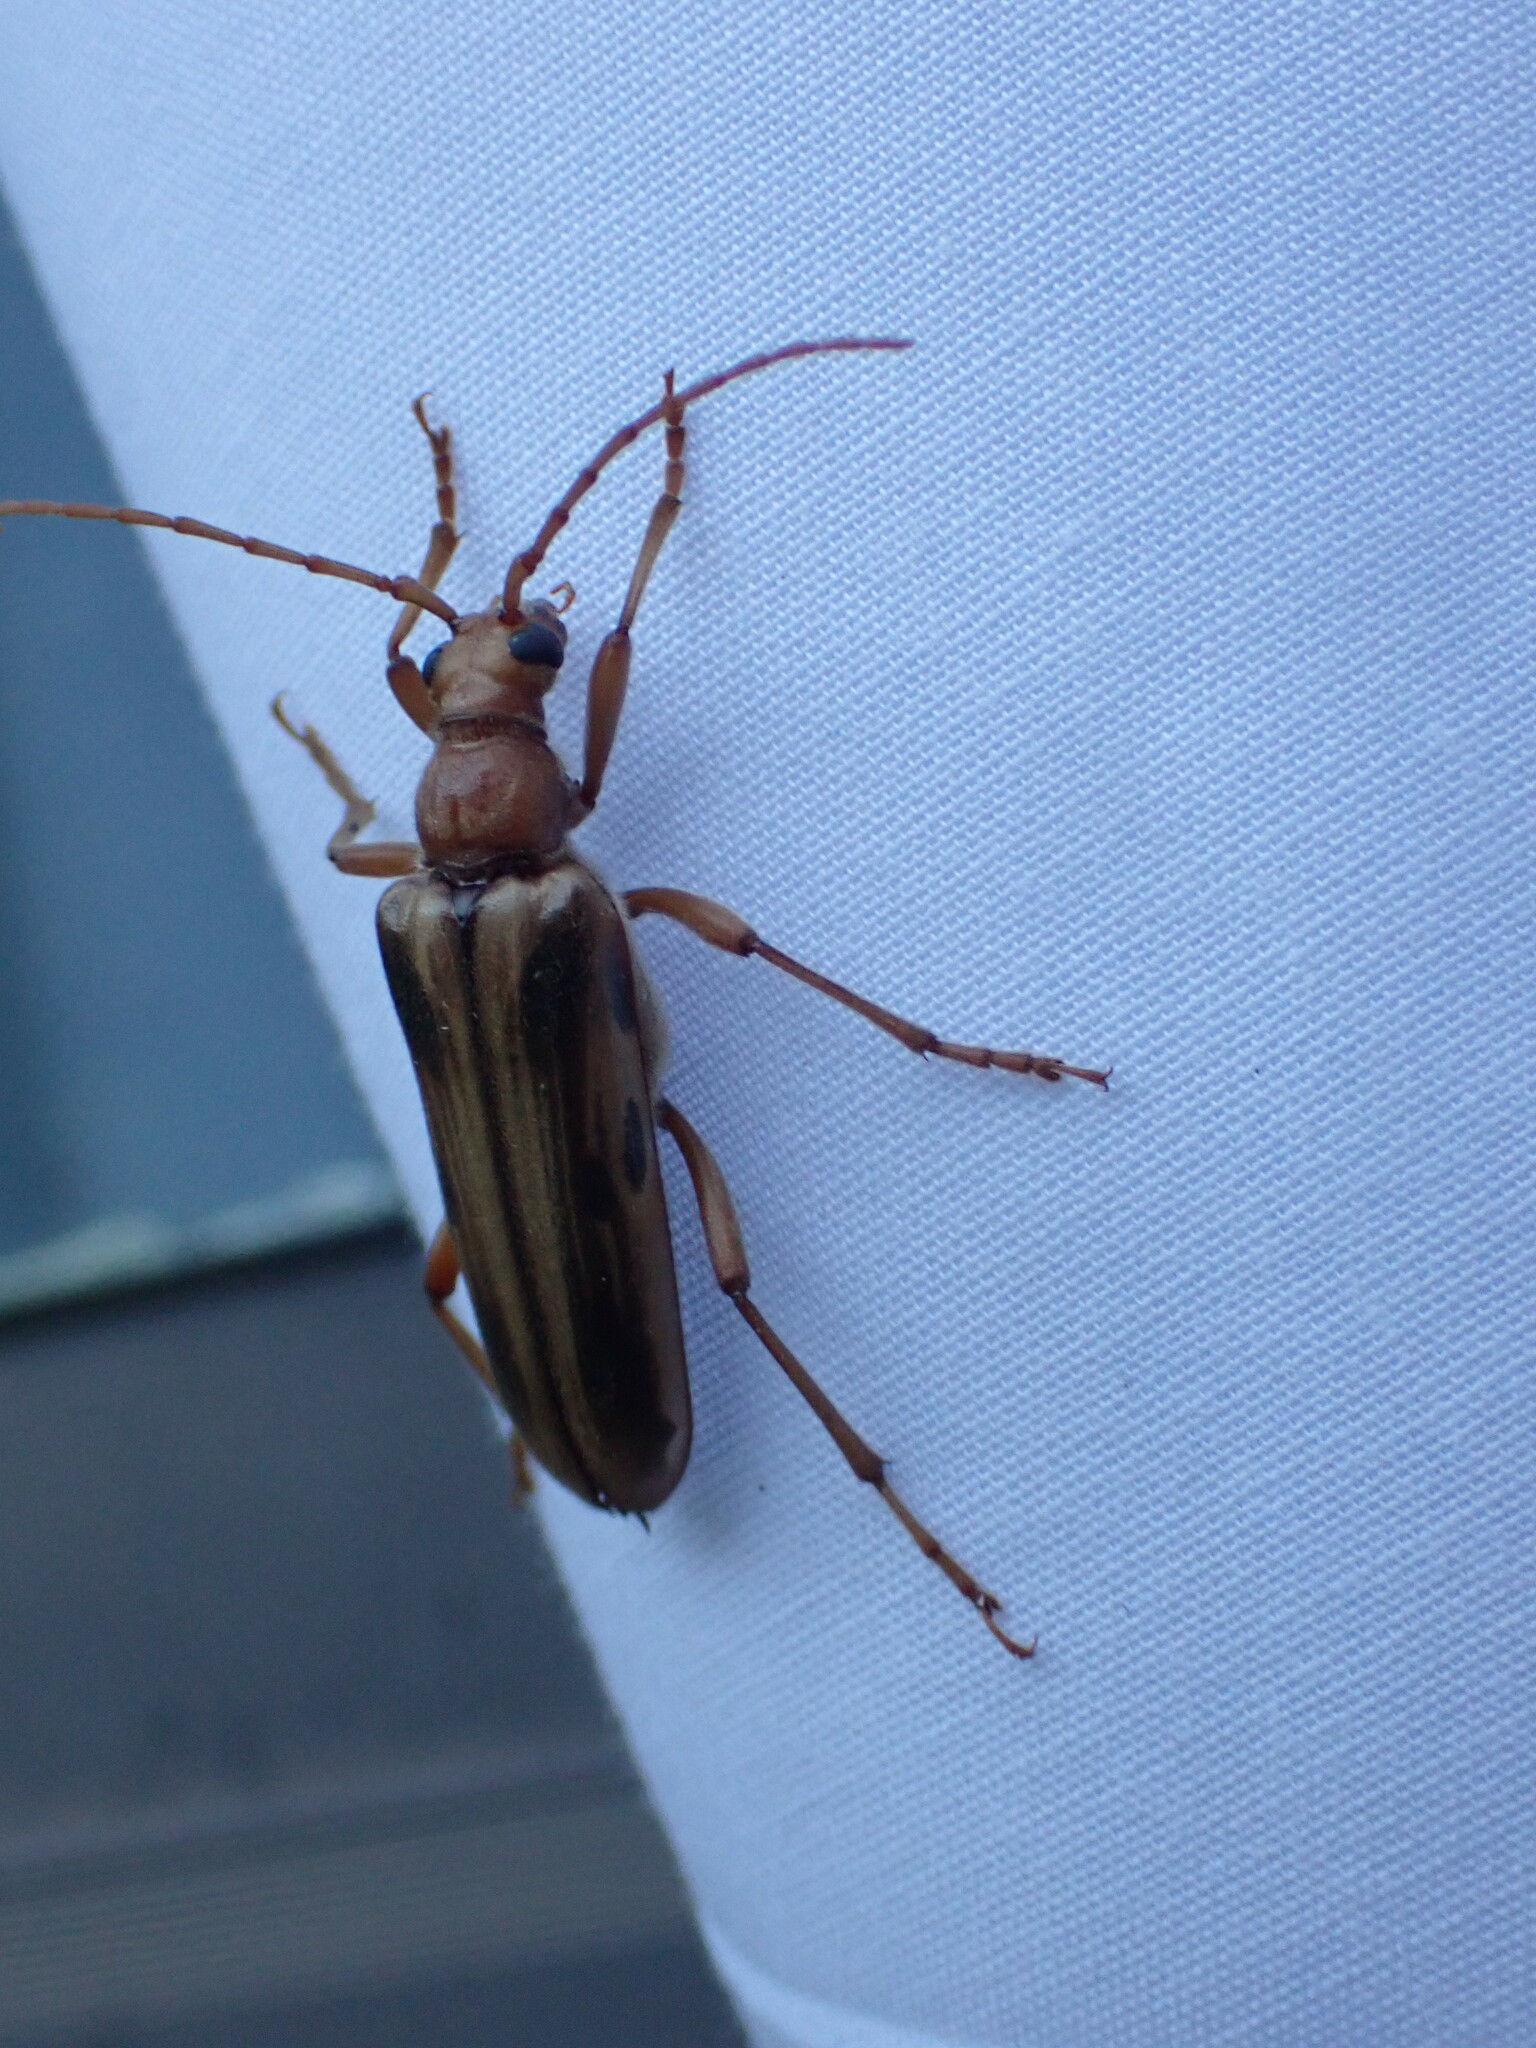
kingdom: Animalia
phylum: Arthropoda
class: Insecta
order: Coleoptera
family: Cerambycidae
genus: Ortholeptura
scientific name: Ortholeptura valida
